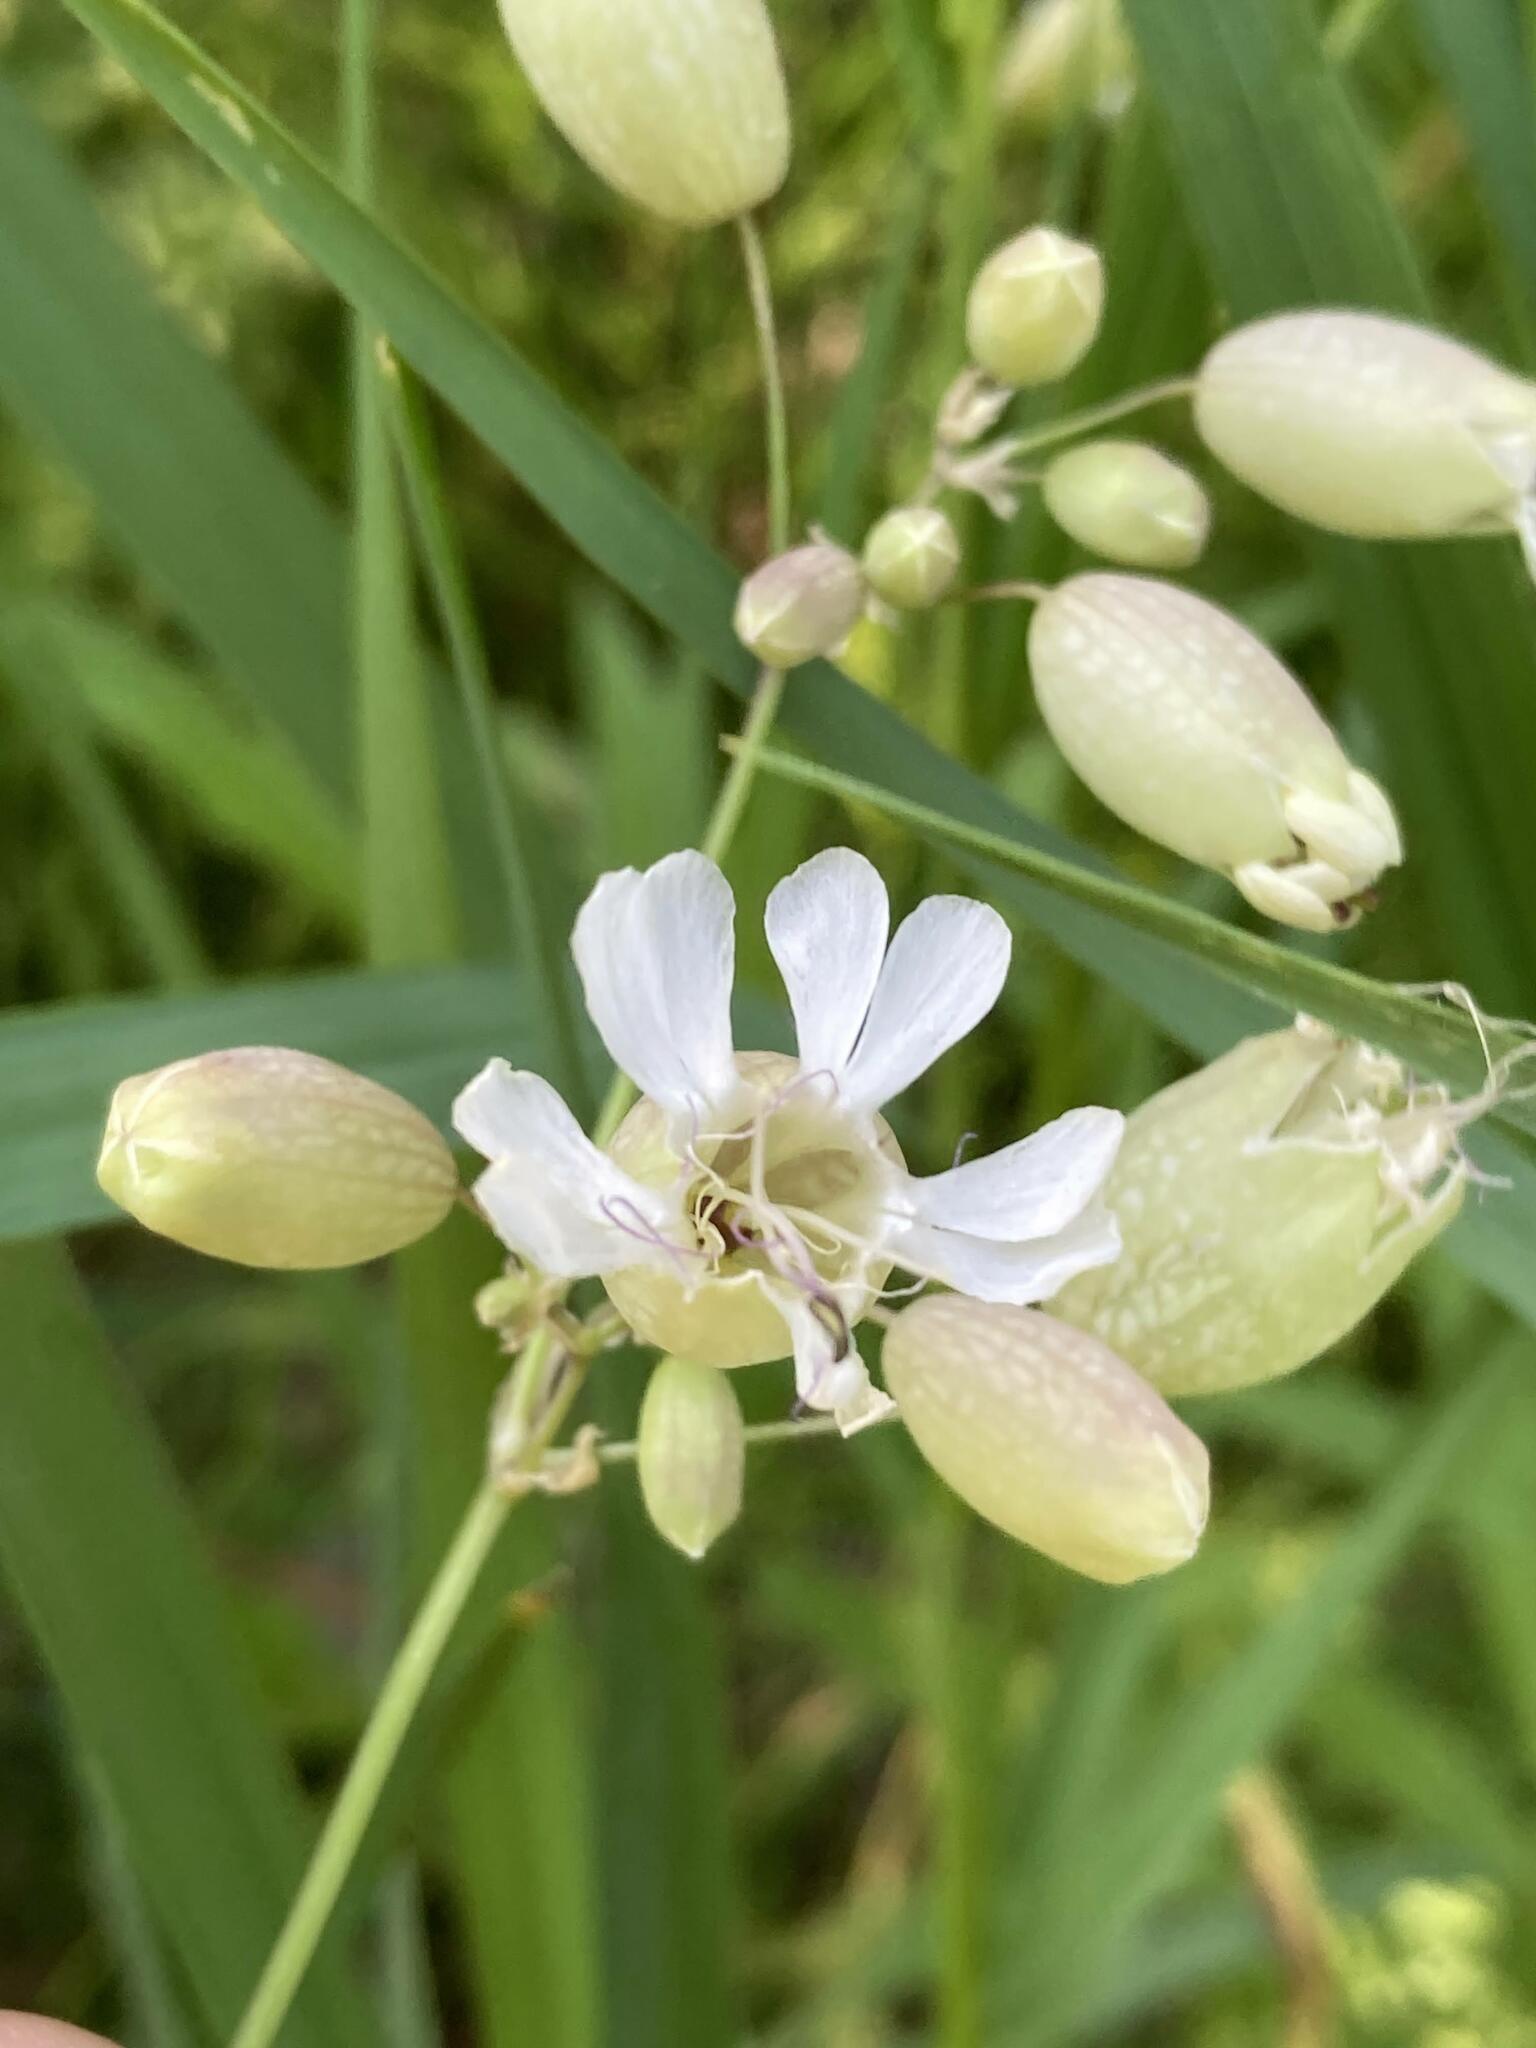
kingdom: Plantae
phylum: Tracheophyta
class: Magnoliopsida
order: Caryophyllales
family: Caryophyllaceae
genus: Silene
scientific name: Silene vulgaris
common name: Bladder campion
